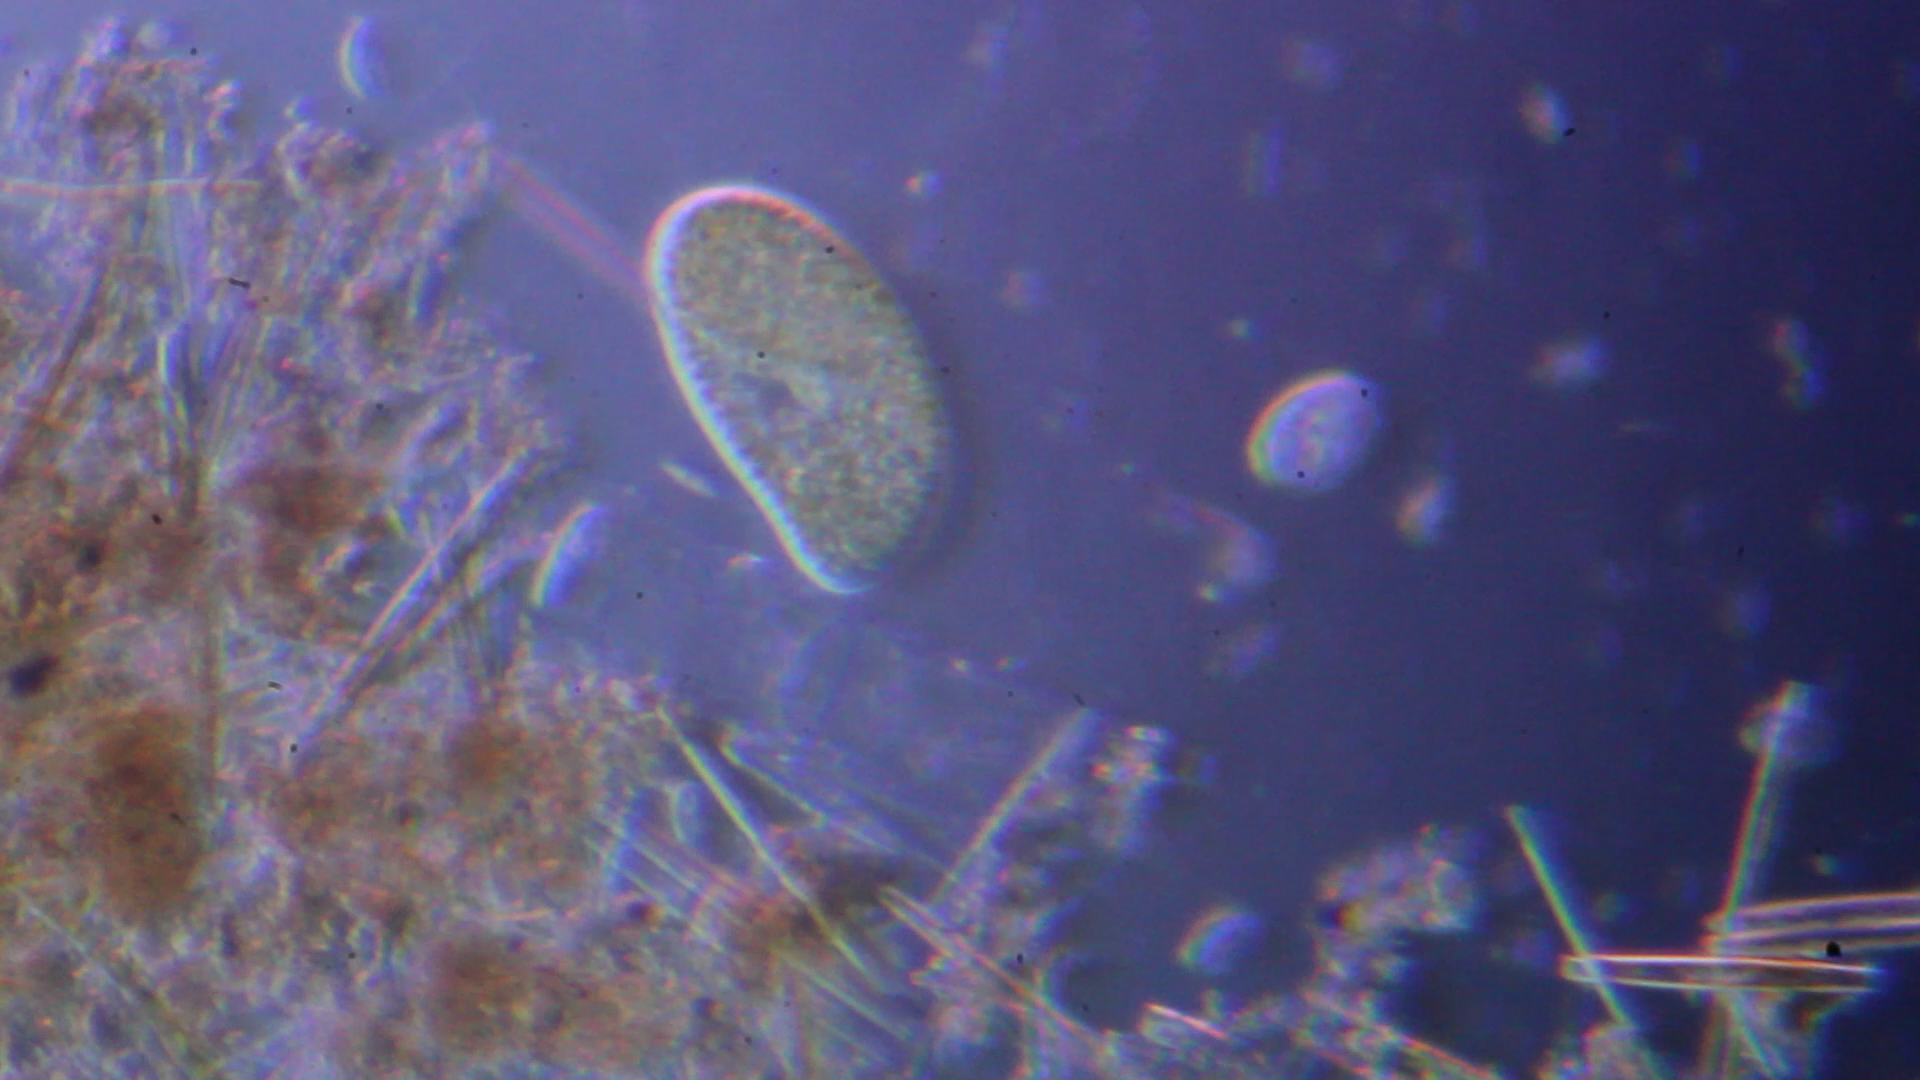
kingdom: Chromista
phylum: Ciliophora
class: Oligohymenophorea
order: Peniculida
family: Parameciidae
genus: Paramecium
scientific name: Paramecium
